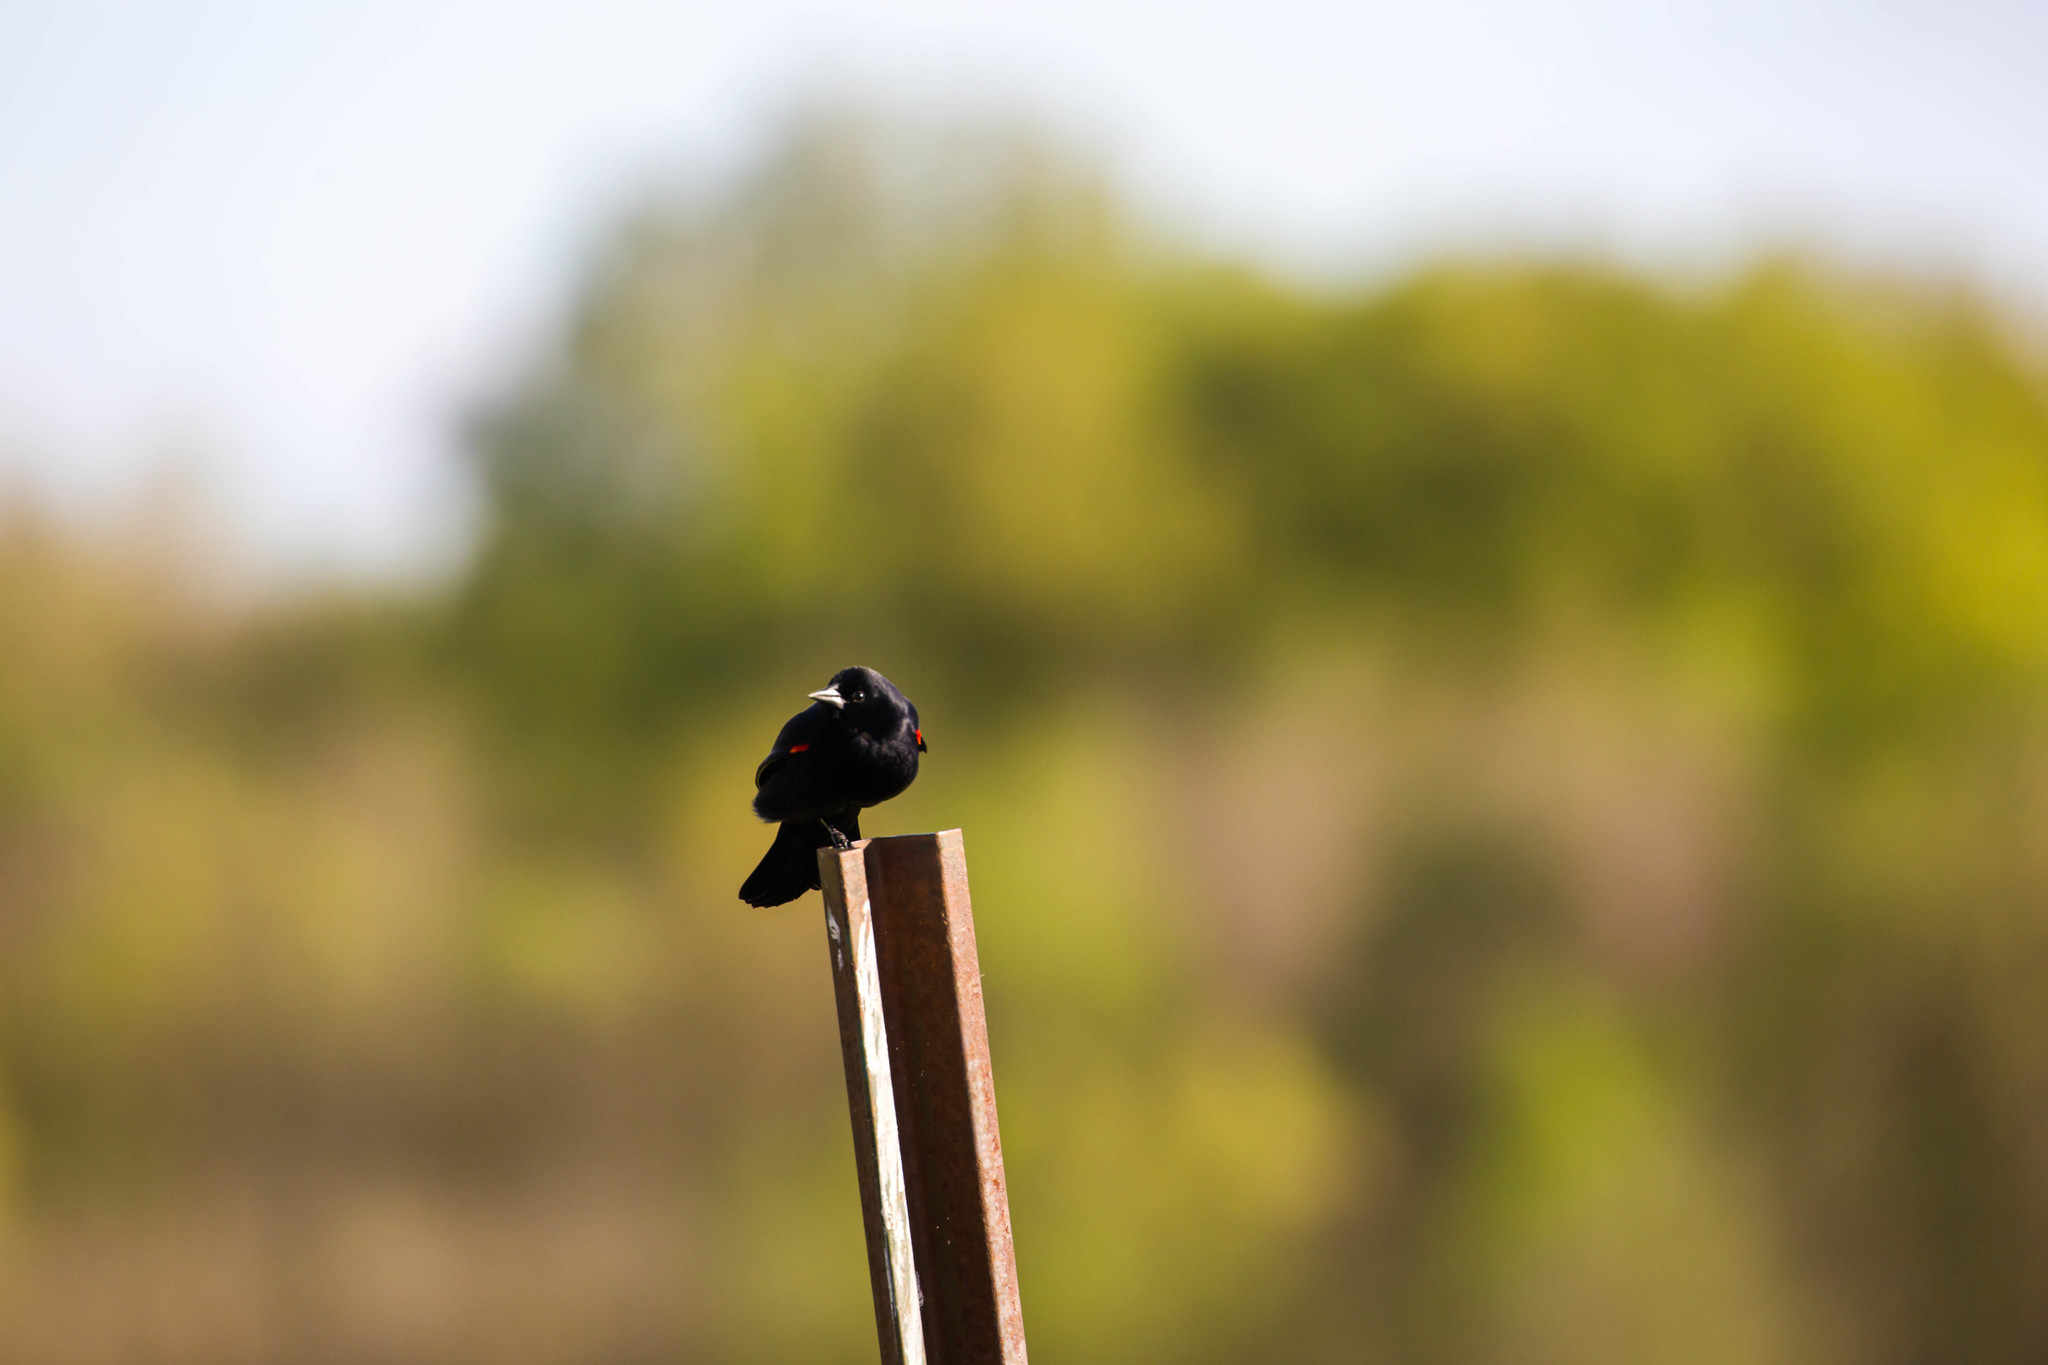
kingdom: Animalia
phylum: Chordata
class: Aves
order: Passeriformes
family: Icteridae
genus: Agelaius
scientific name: Agelaius phoeniceus
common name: Red-winged blackbird
